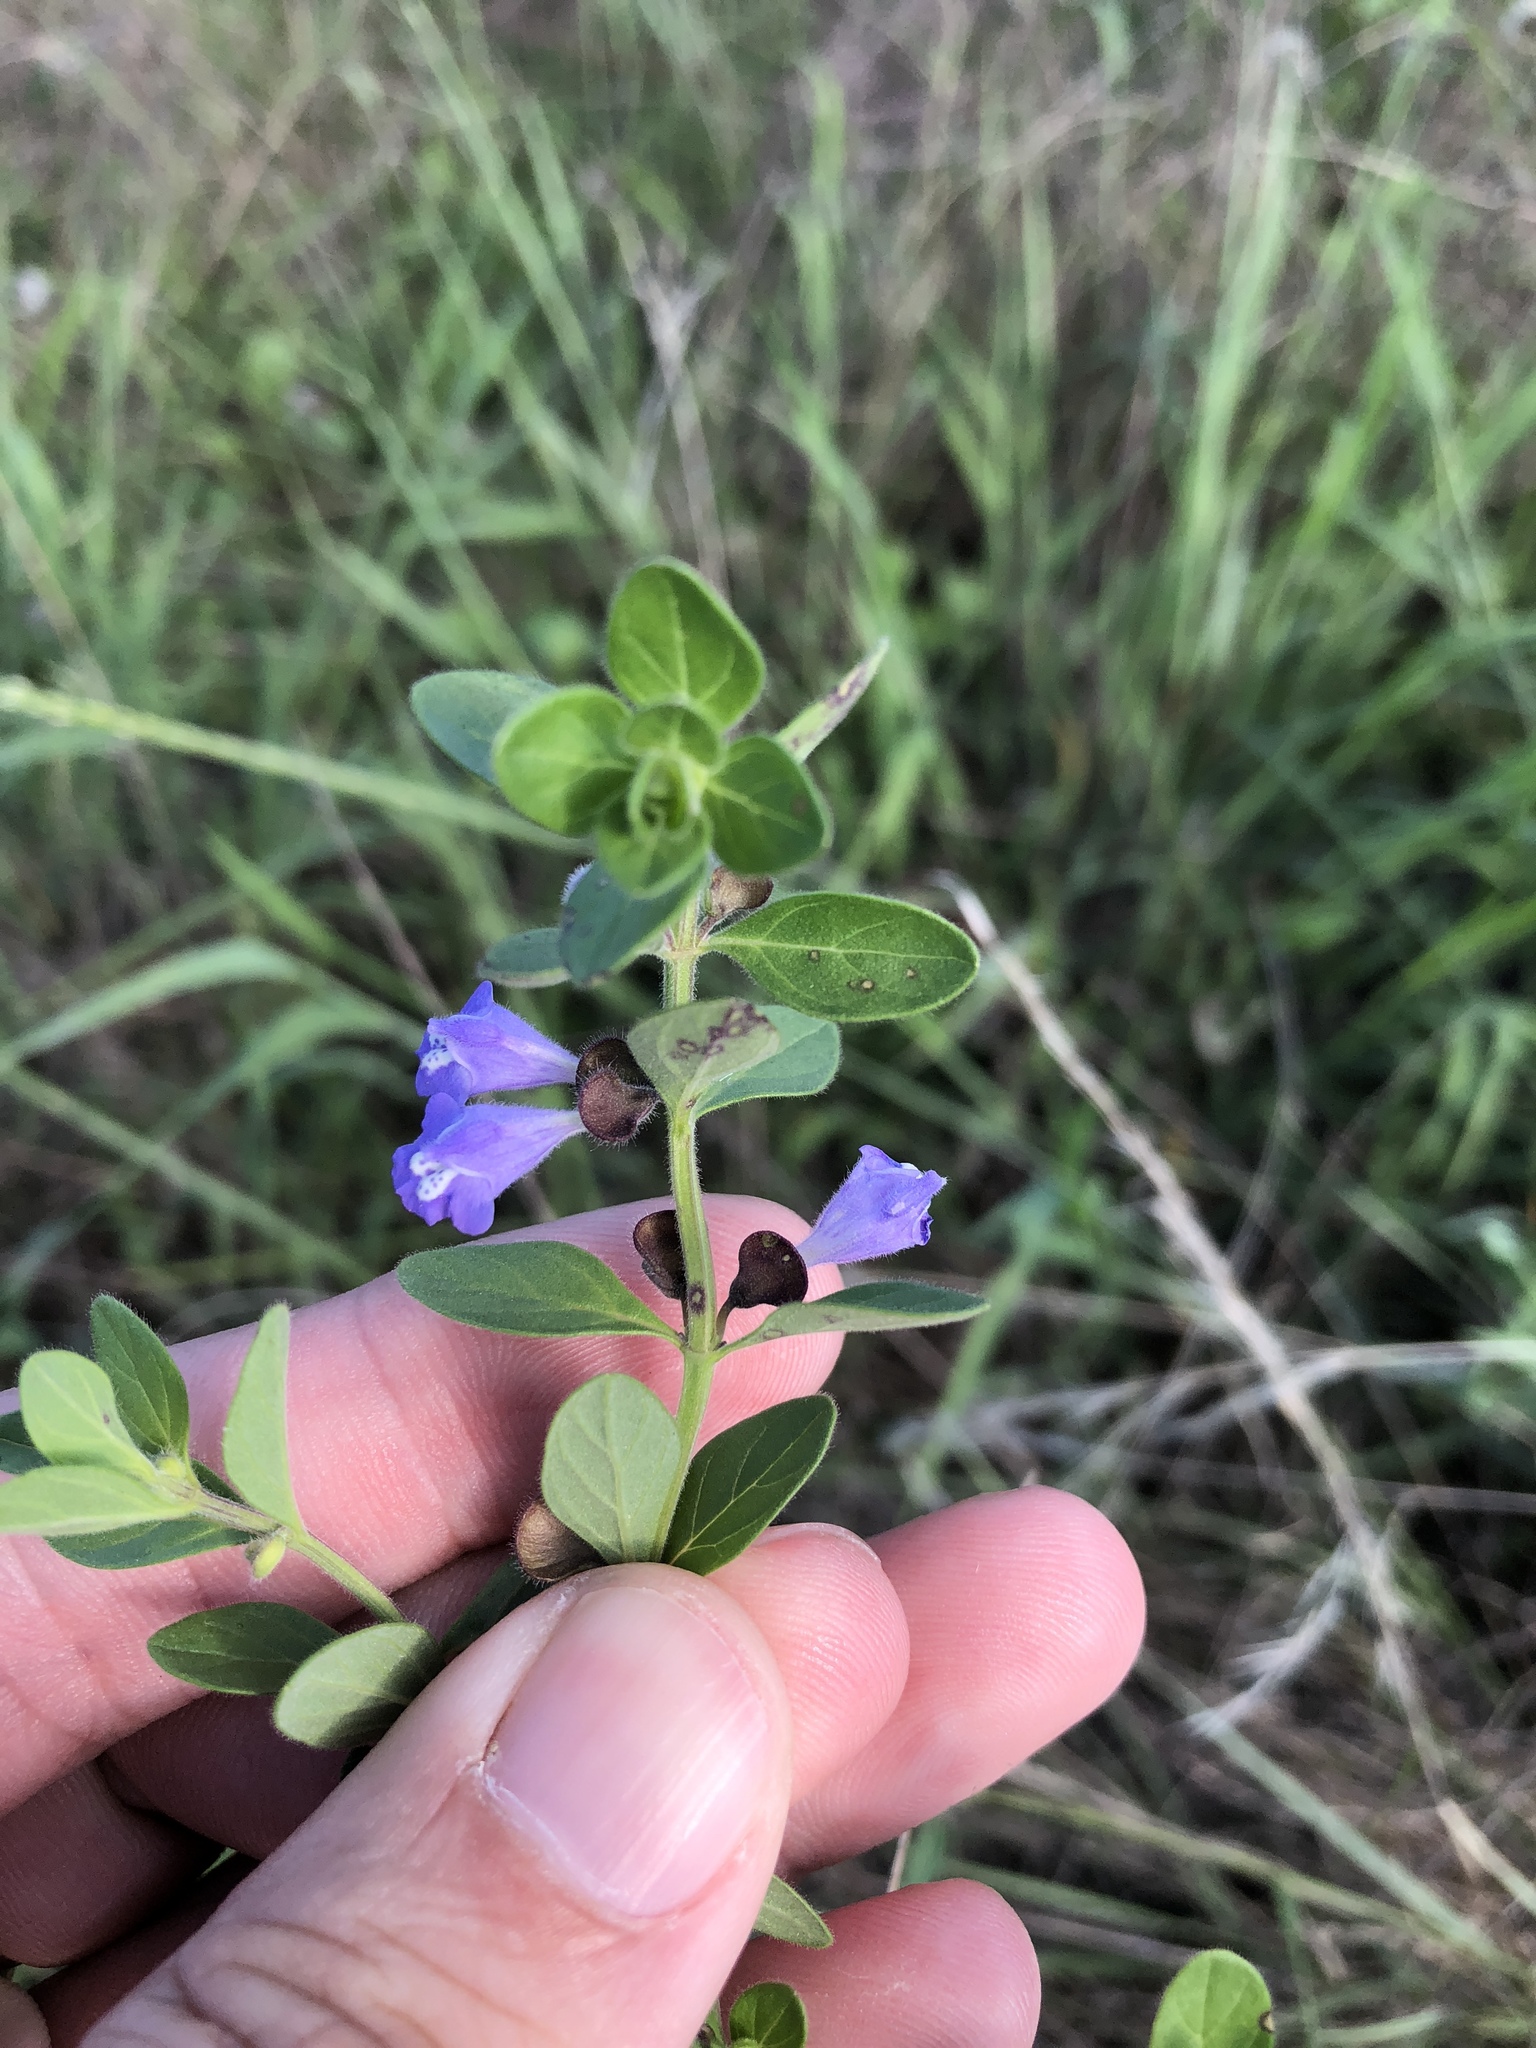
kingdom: Plantae
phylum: Tracheophyta
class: Magnoliopsida
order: Lamiales
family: Lamiaceae
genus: Scutellaria
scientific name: Scutellaria drummondii
